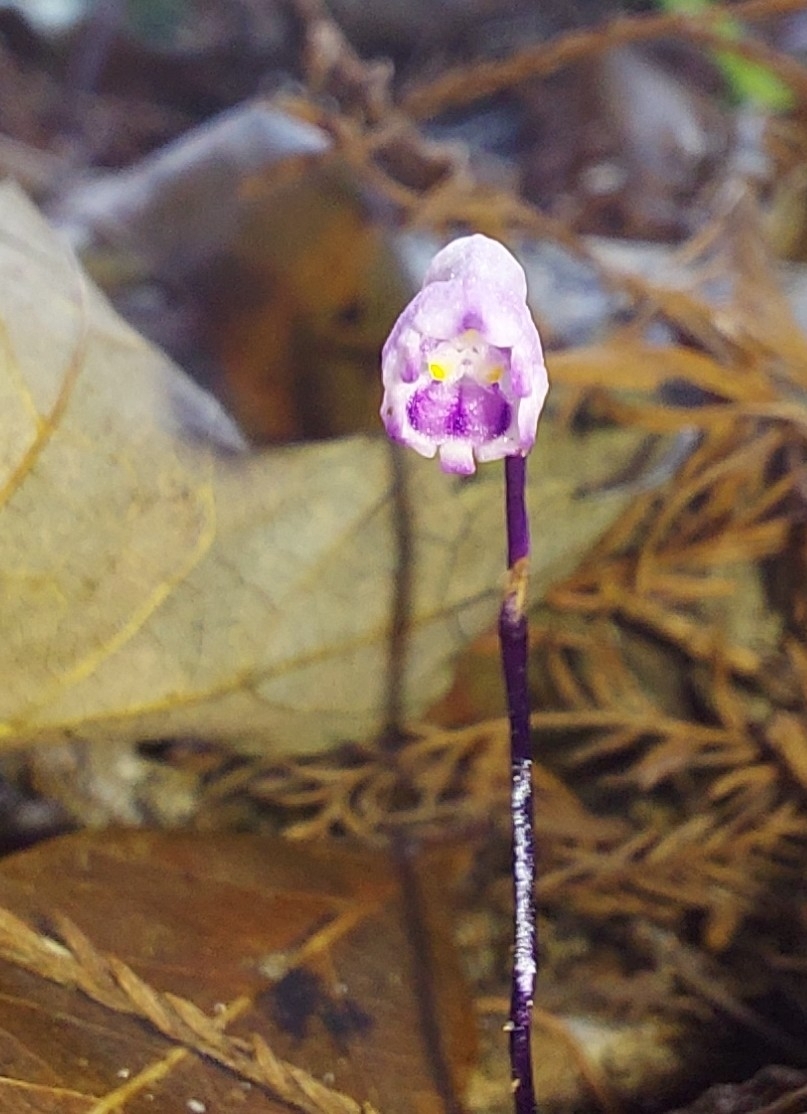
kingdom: Plantae
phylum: Tracheophyta
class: Liliopsida
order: Dioscoreales
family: Burmanniaceae
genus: Apteria
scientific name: Apteria aphylla
